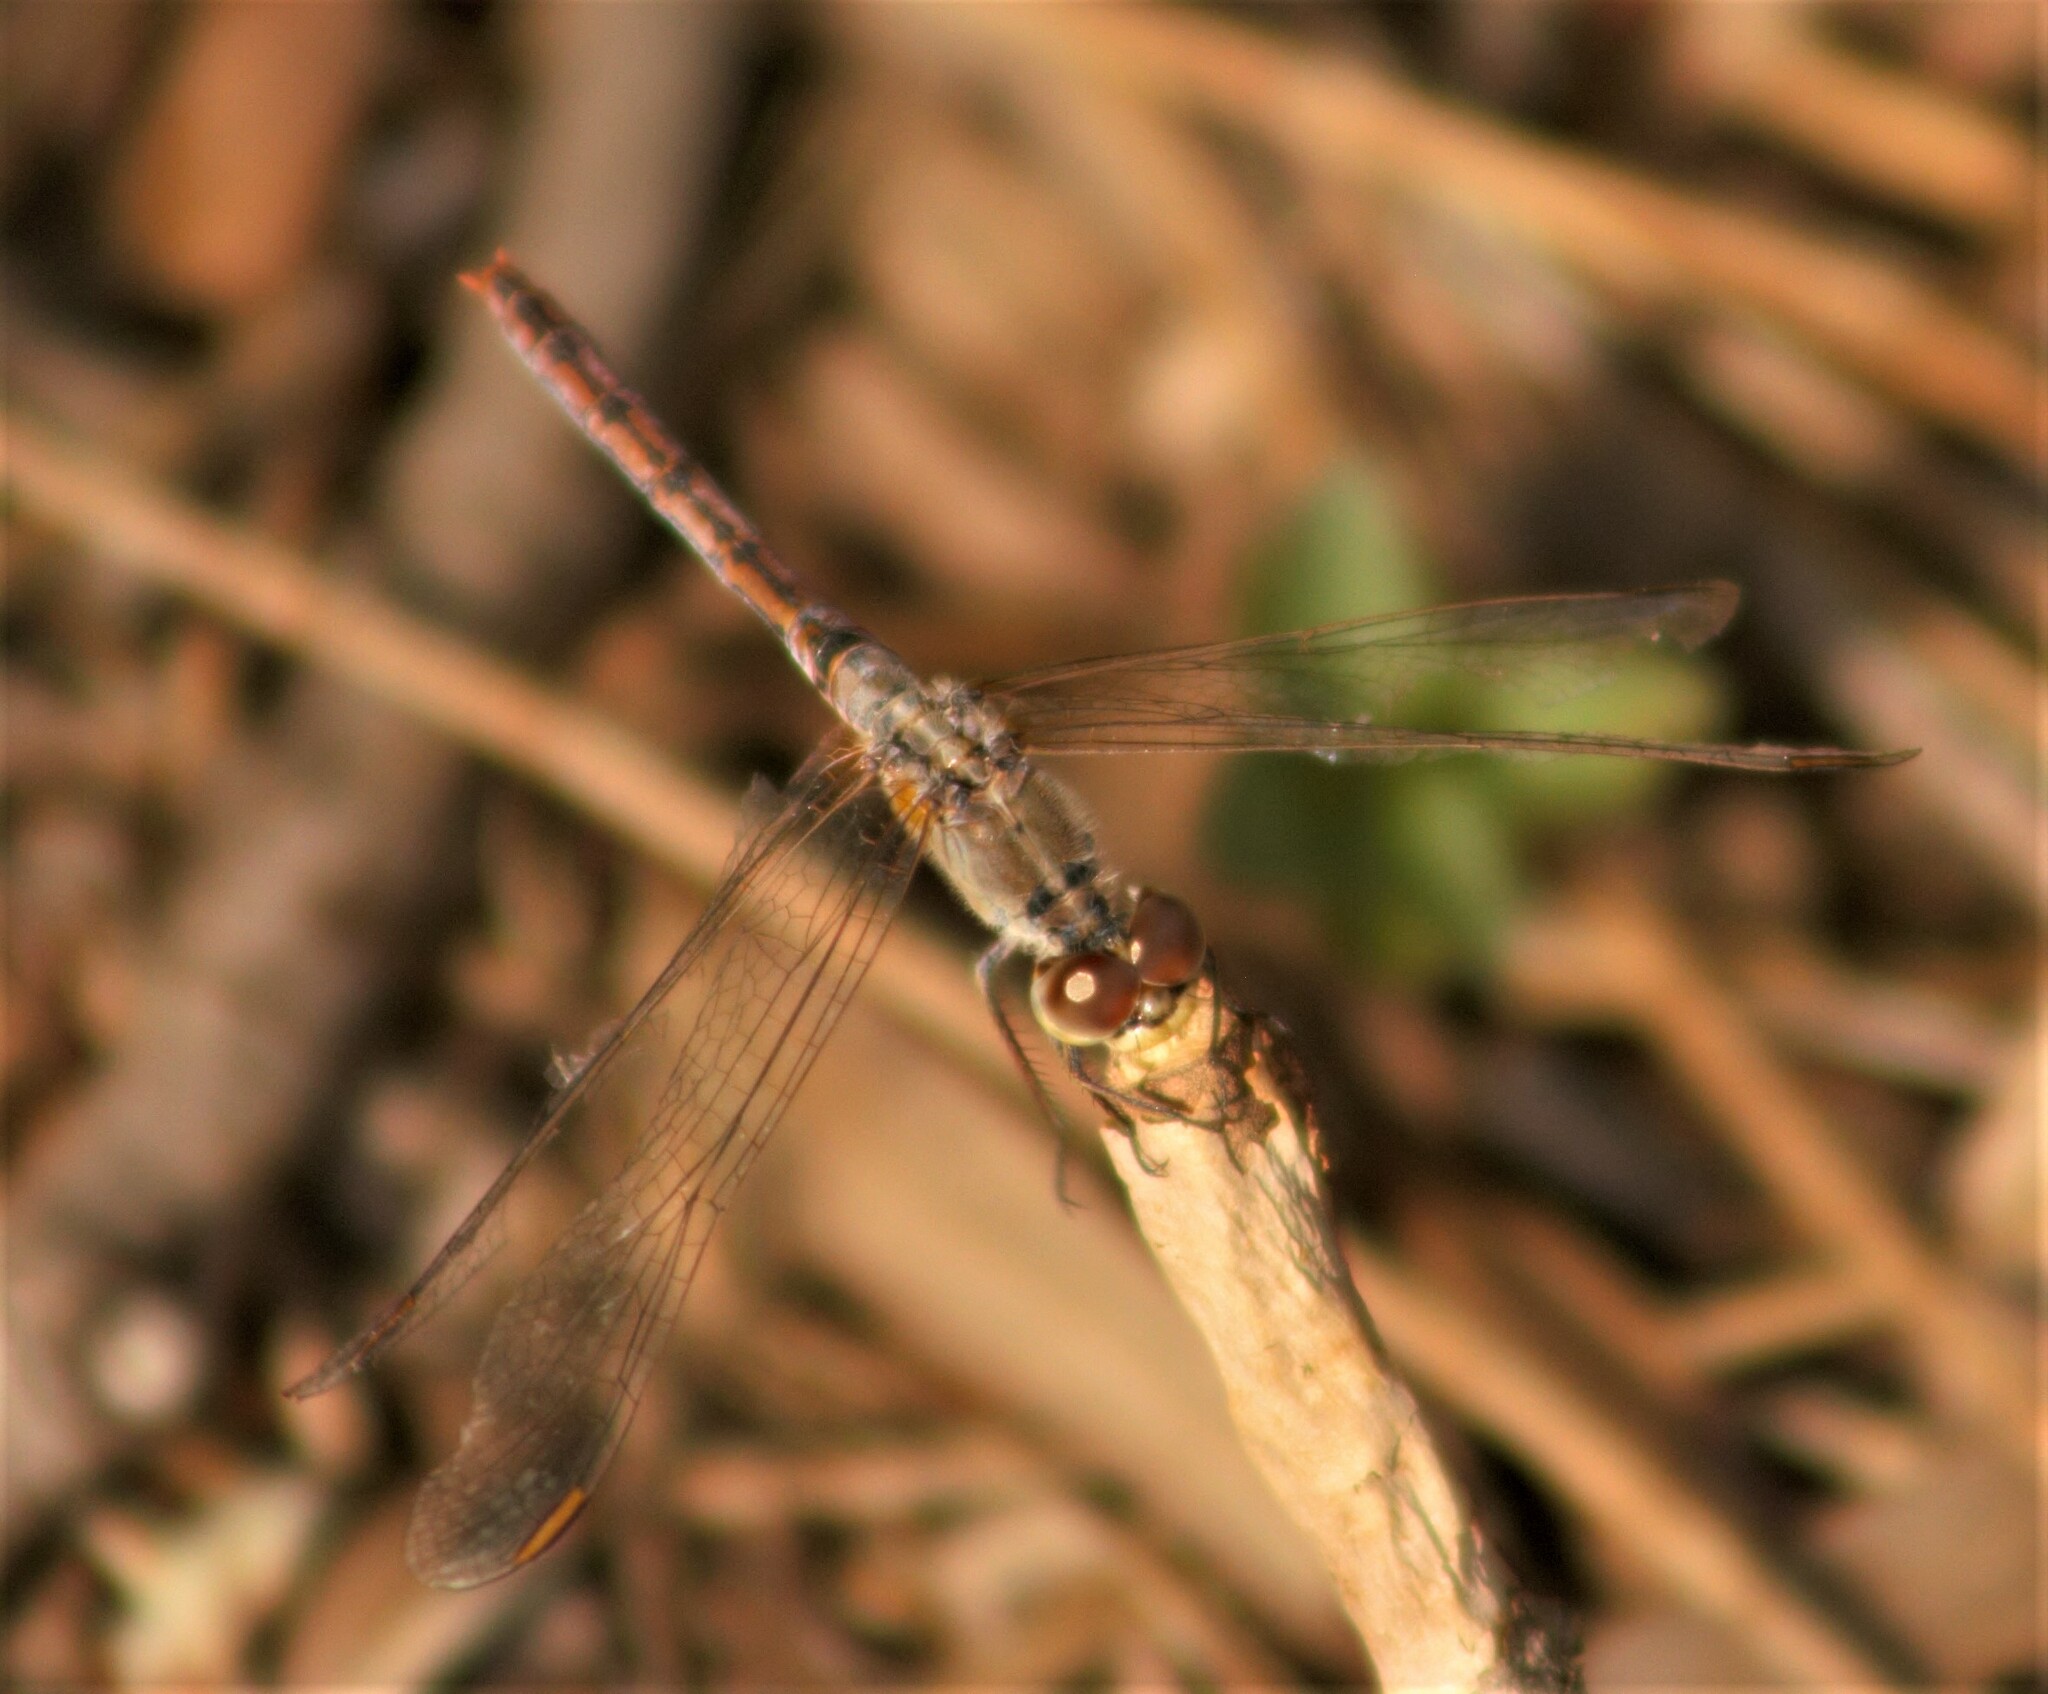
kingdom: Animalia
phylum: Arthropoda
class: Insecta
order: Odonata
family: Libellulidae
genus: Diplacodes
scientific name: Diplacodes bipunctata
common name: Red percher dragonfly
